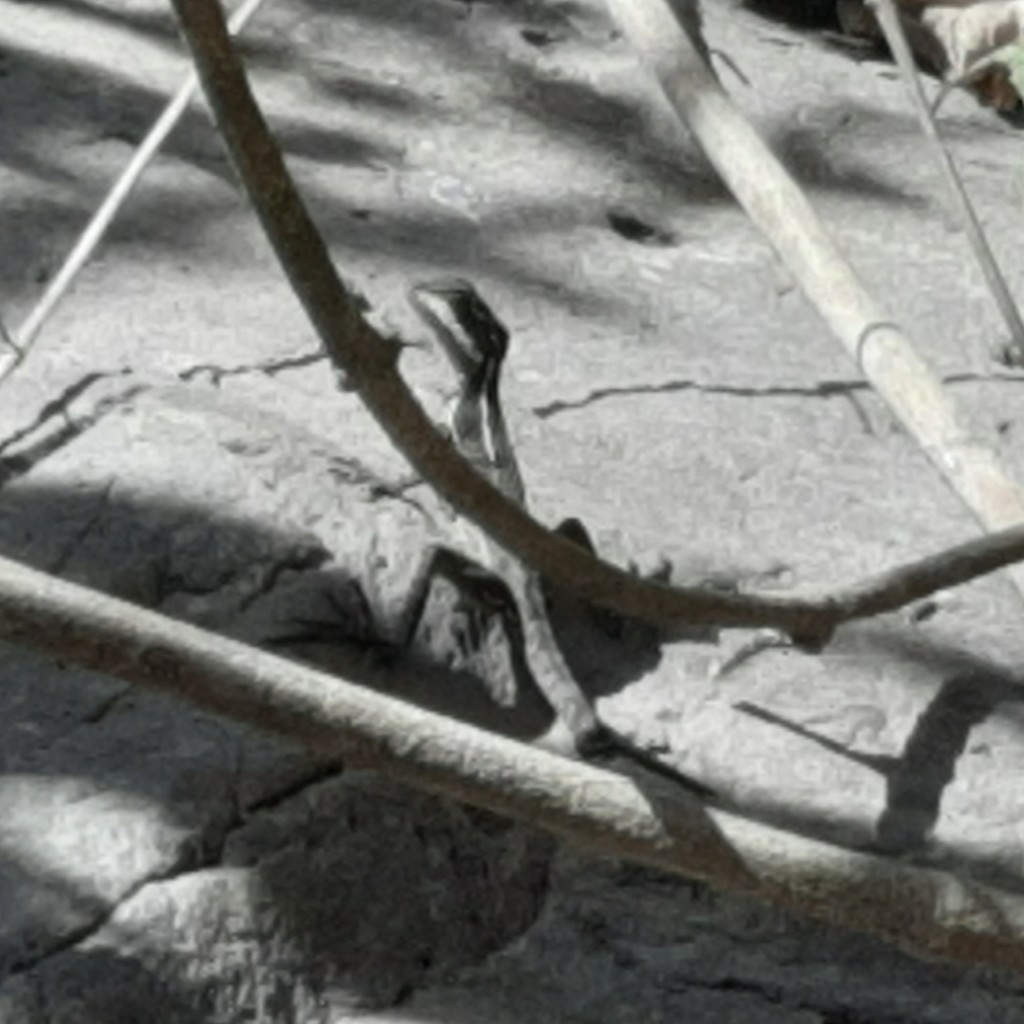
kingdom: Animalia
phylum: Chordata
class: Squamata
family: Corytophanidae
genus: Basiliscus
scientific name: Basiliscus basiliscus
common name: Common basilisk
